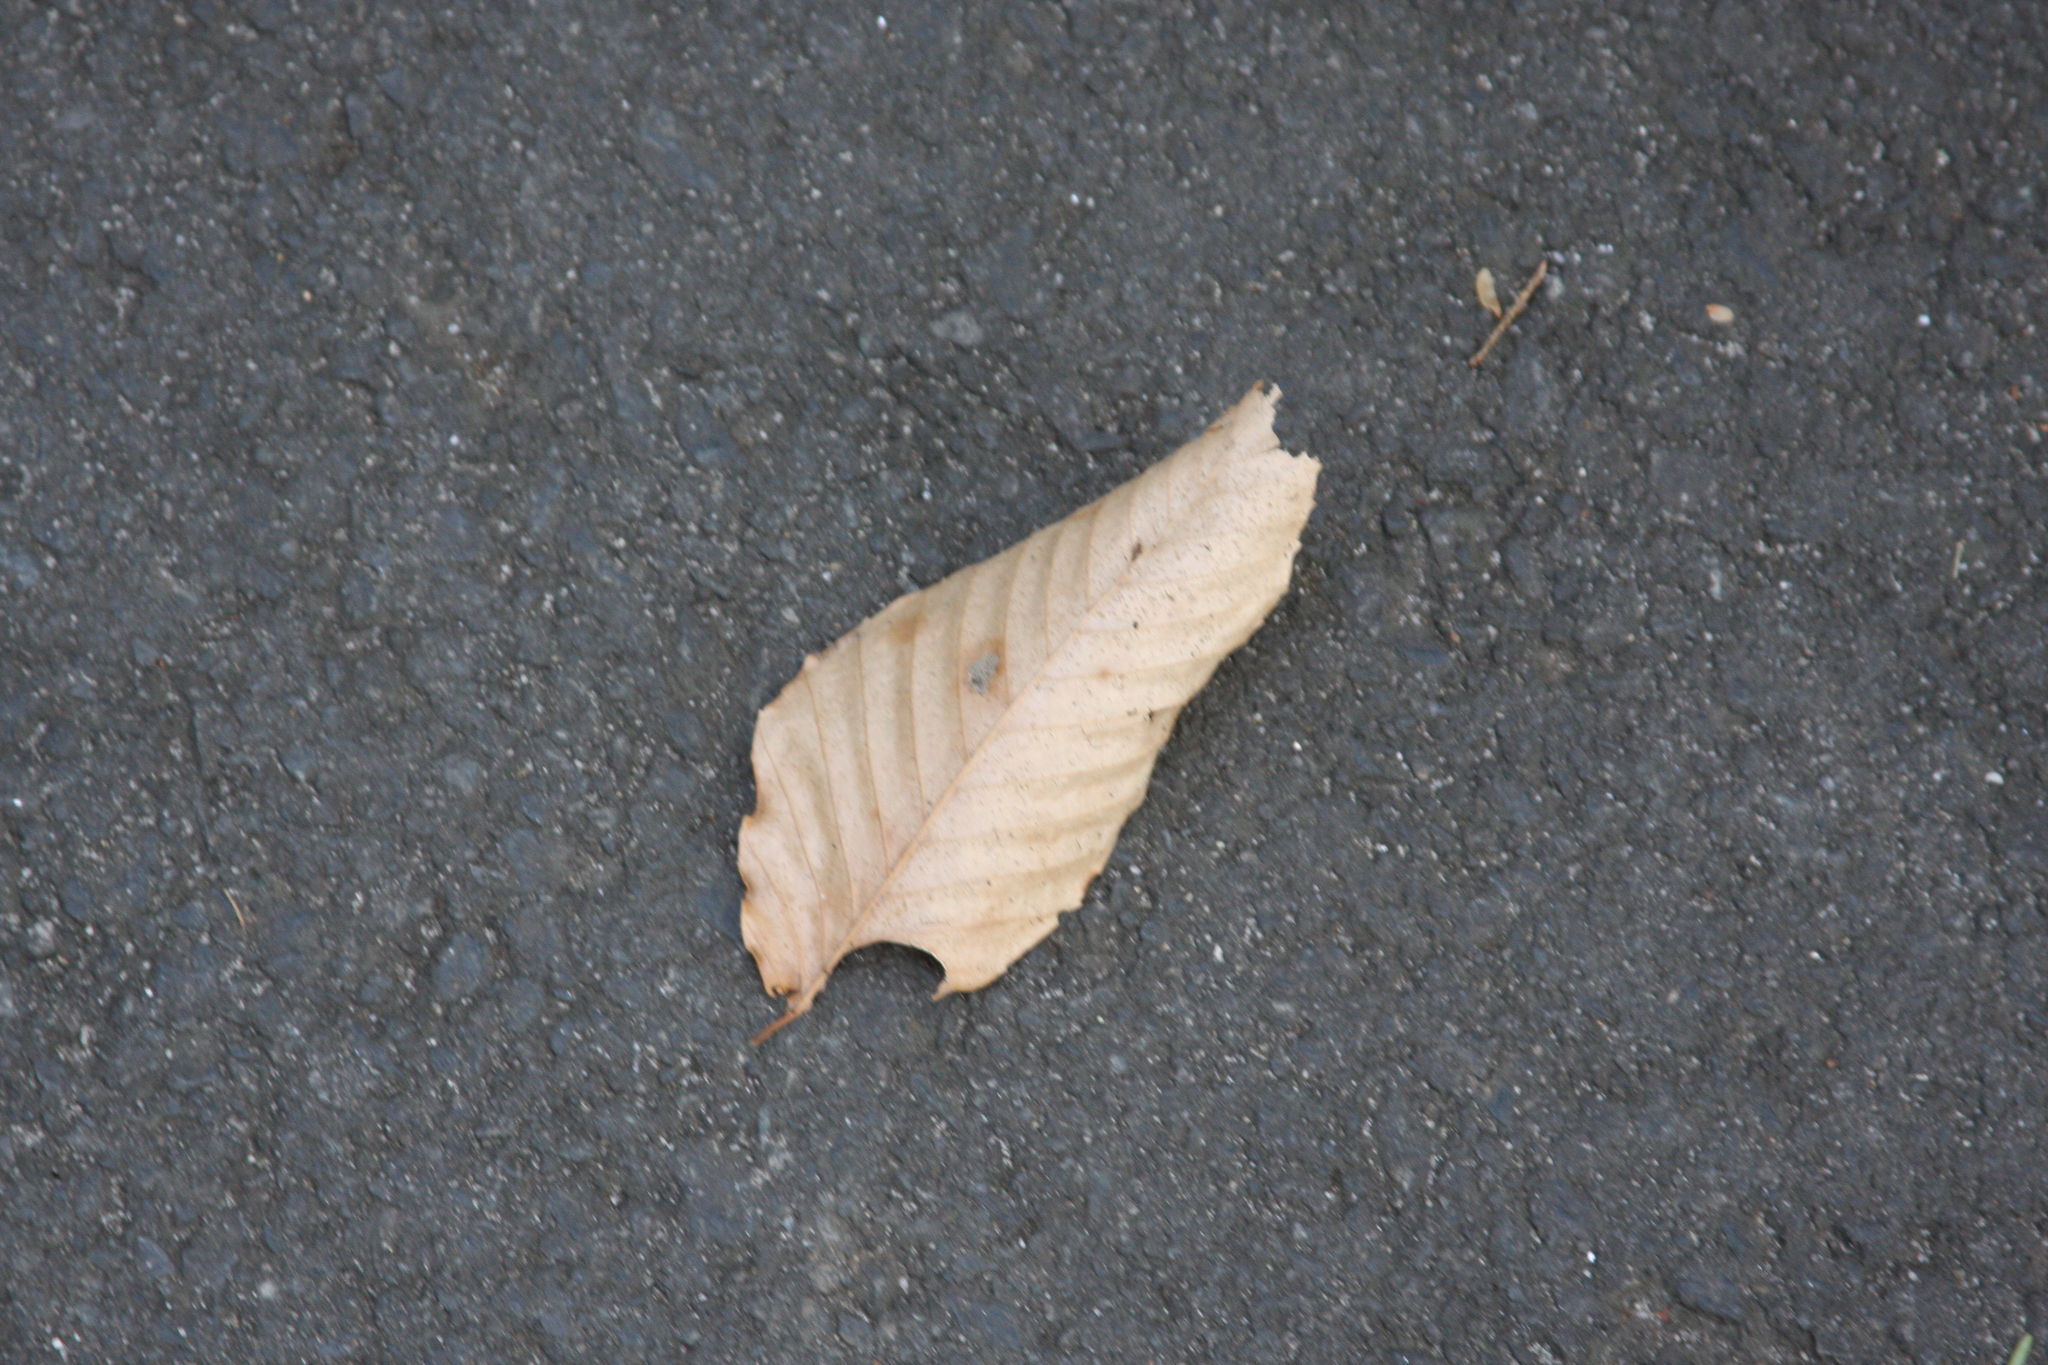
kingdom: Plantae
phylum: Tracheophyta
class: Magnoliopsida
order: Fagales
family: Fagaceae
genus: Fagus
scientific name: Fagus grandifolia
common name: American beech
